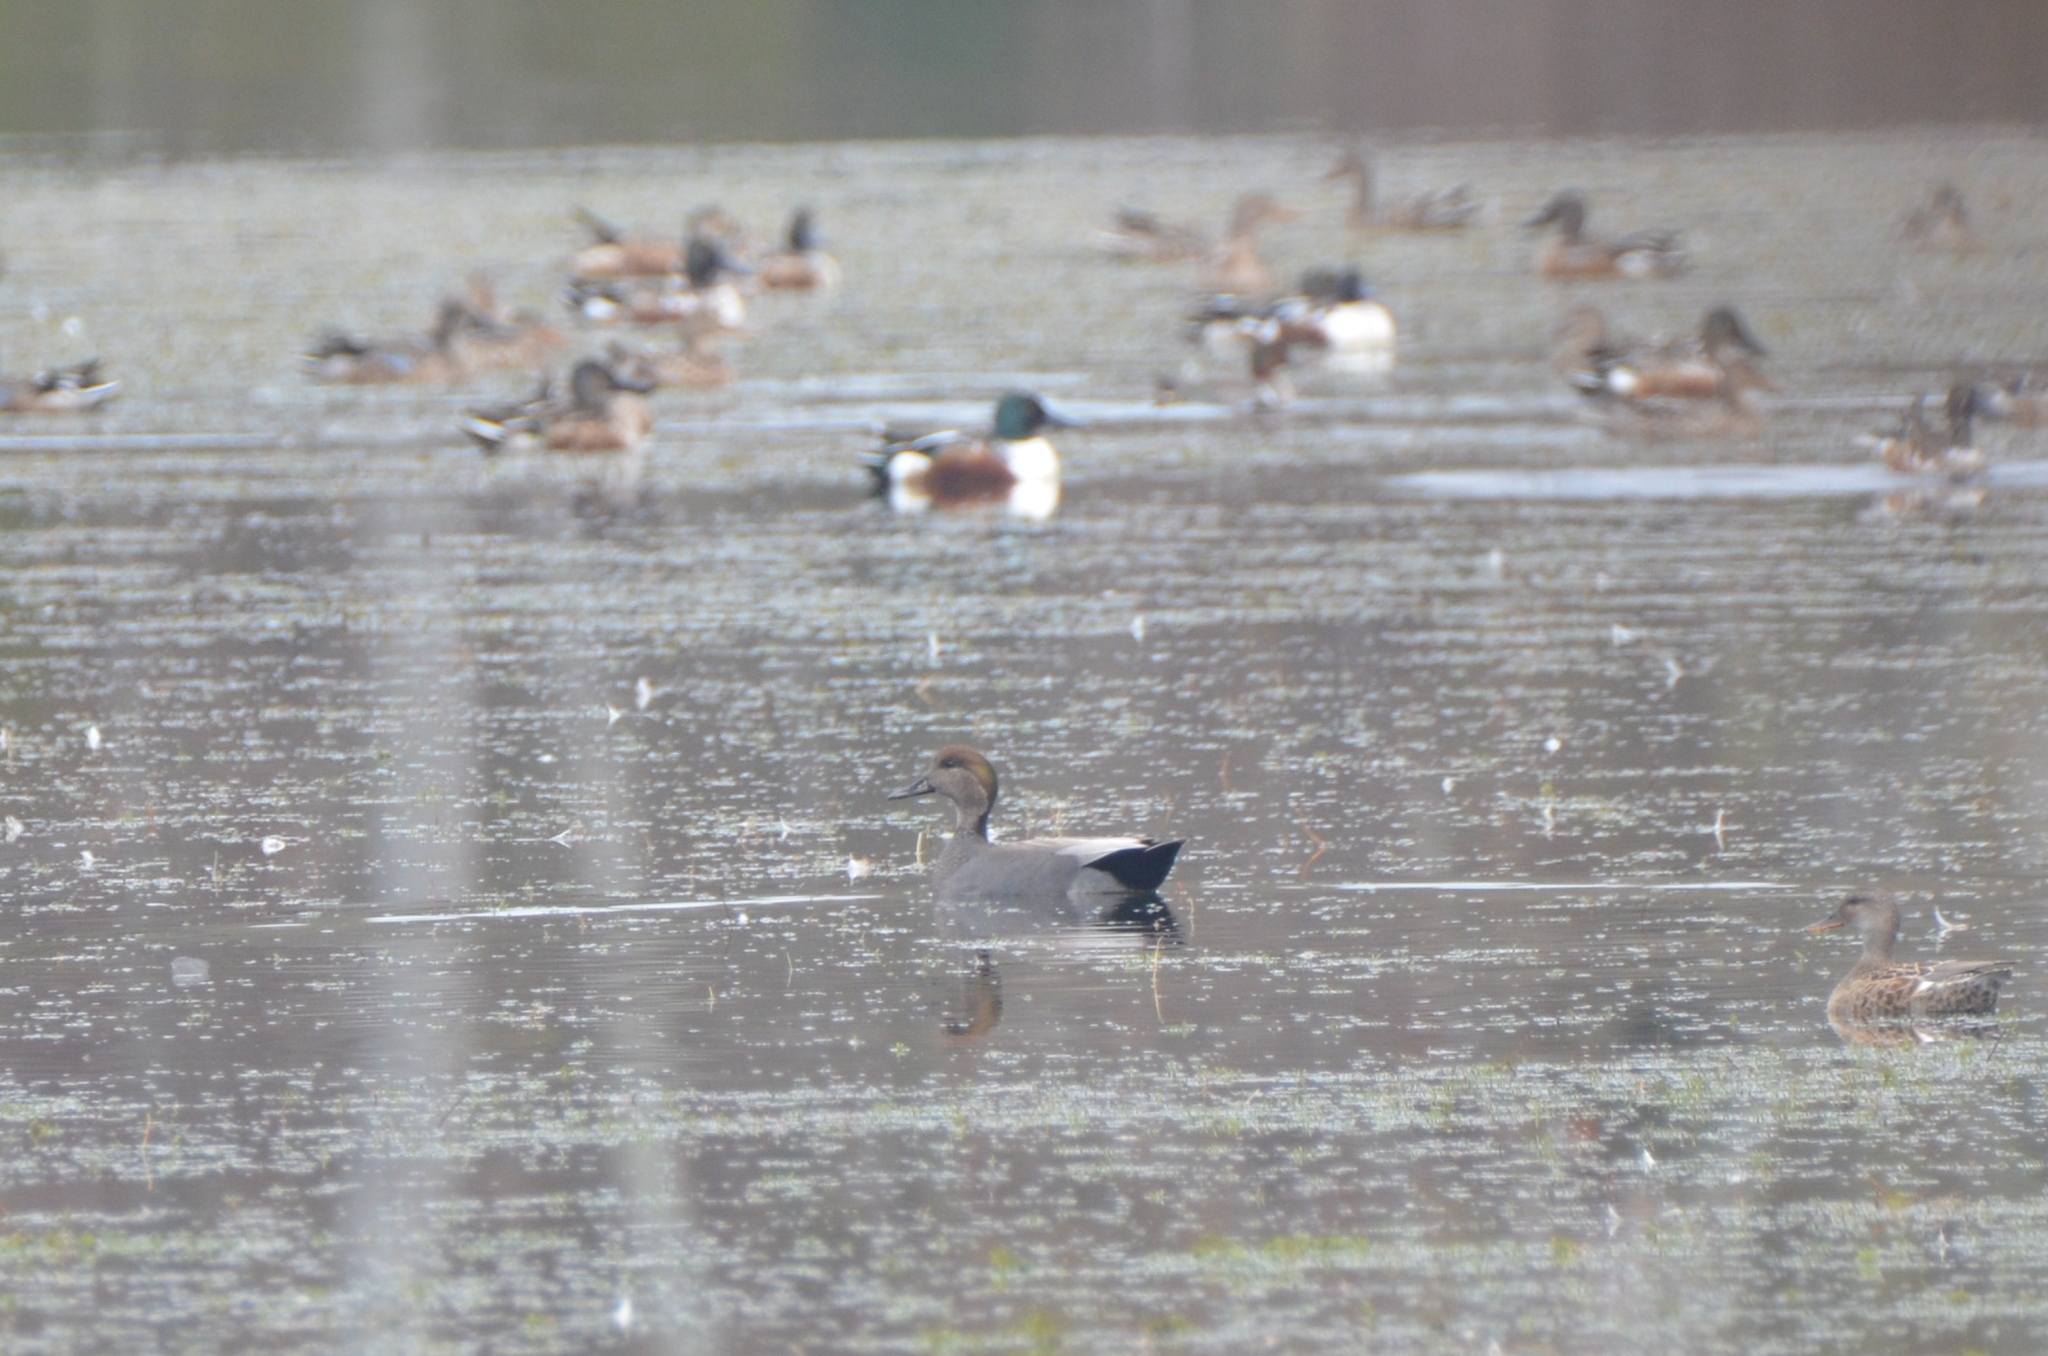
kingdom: Animalia
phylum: Chordata
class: Aves
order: Anseriformes
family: Anatidae
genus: Mareca
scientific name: Mareca strepera
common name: Gadwall
